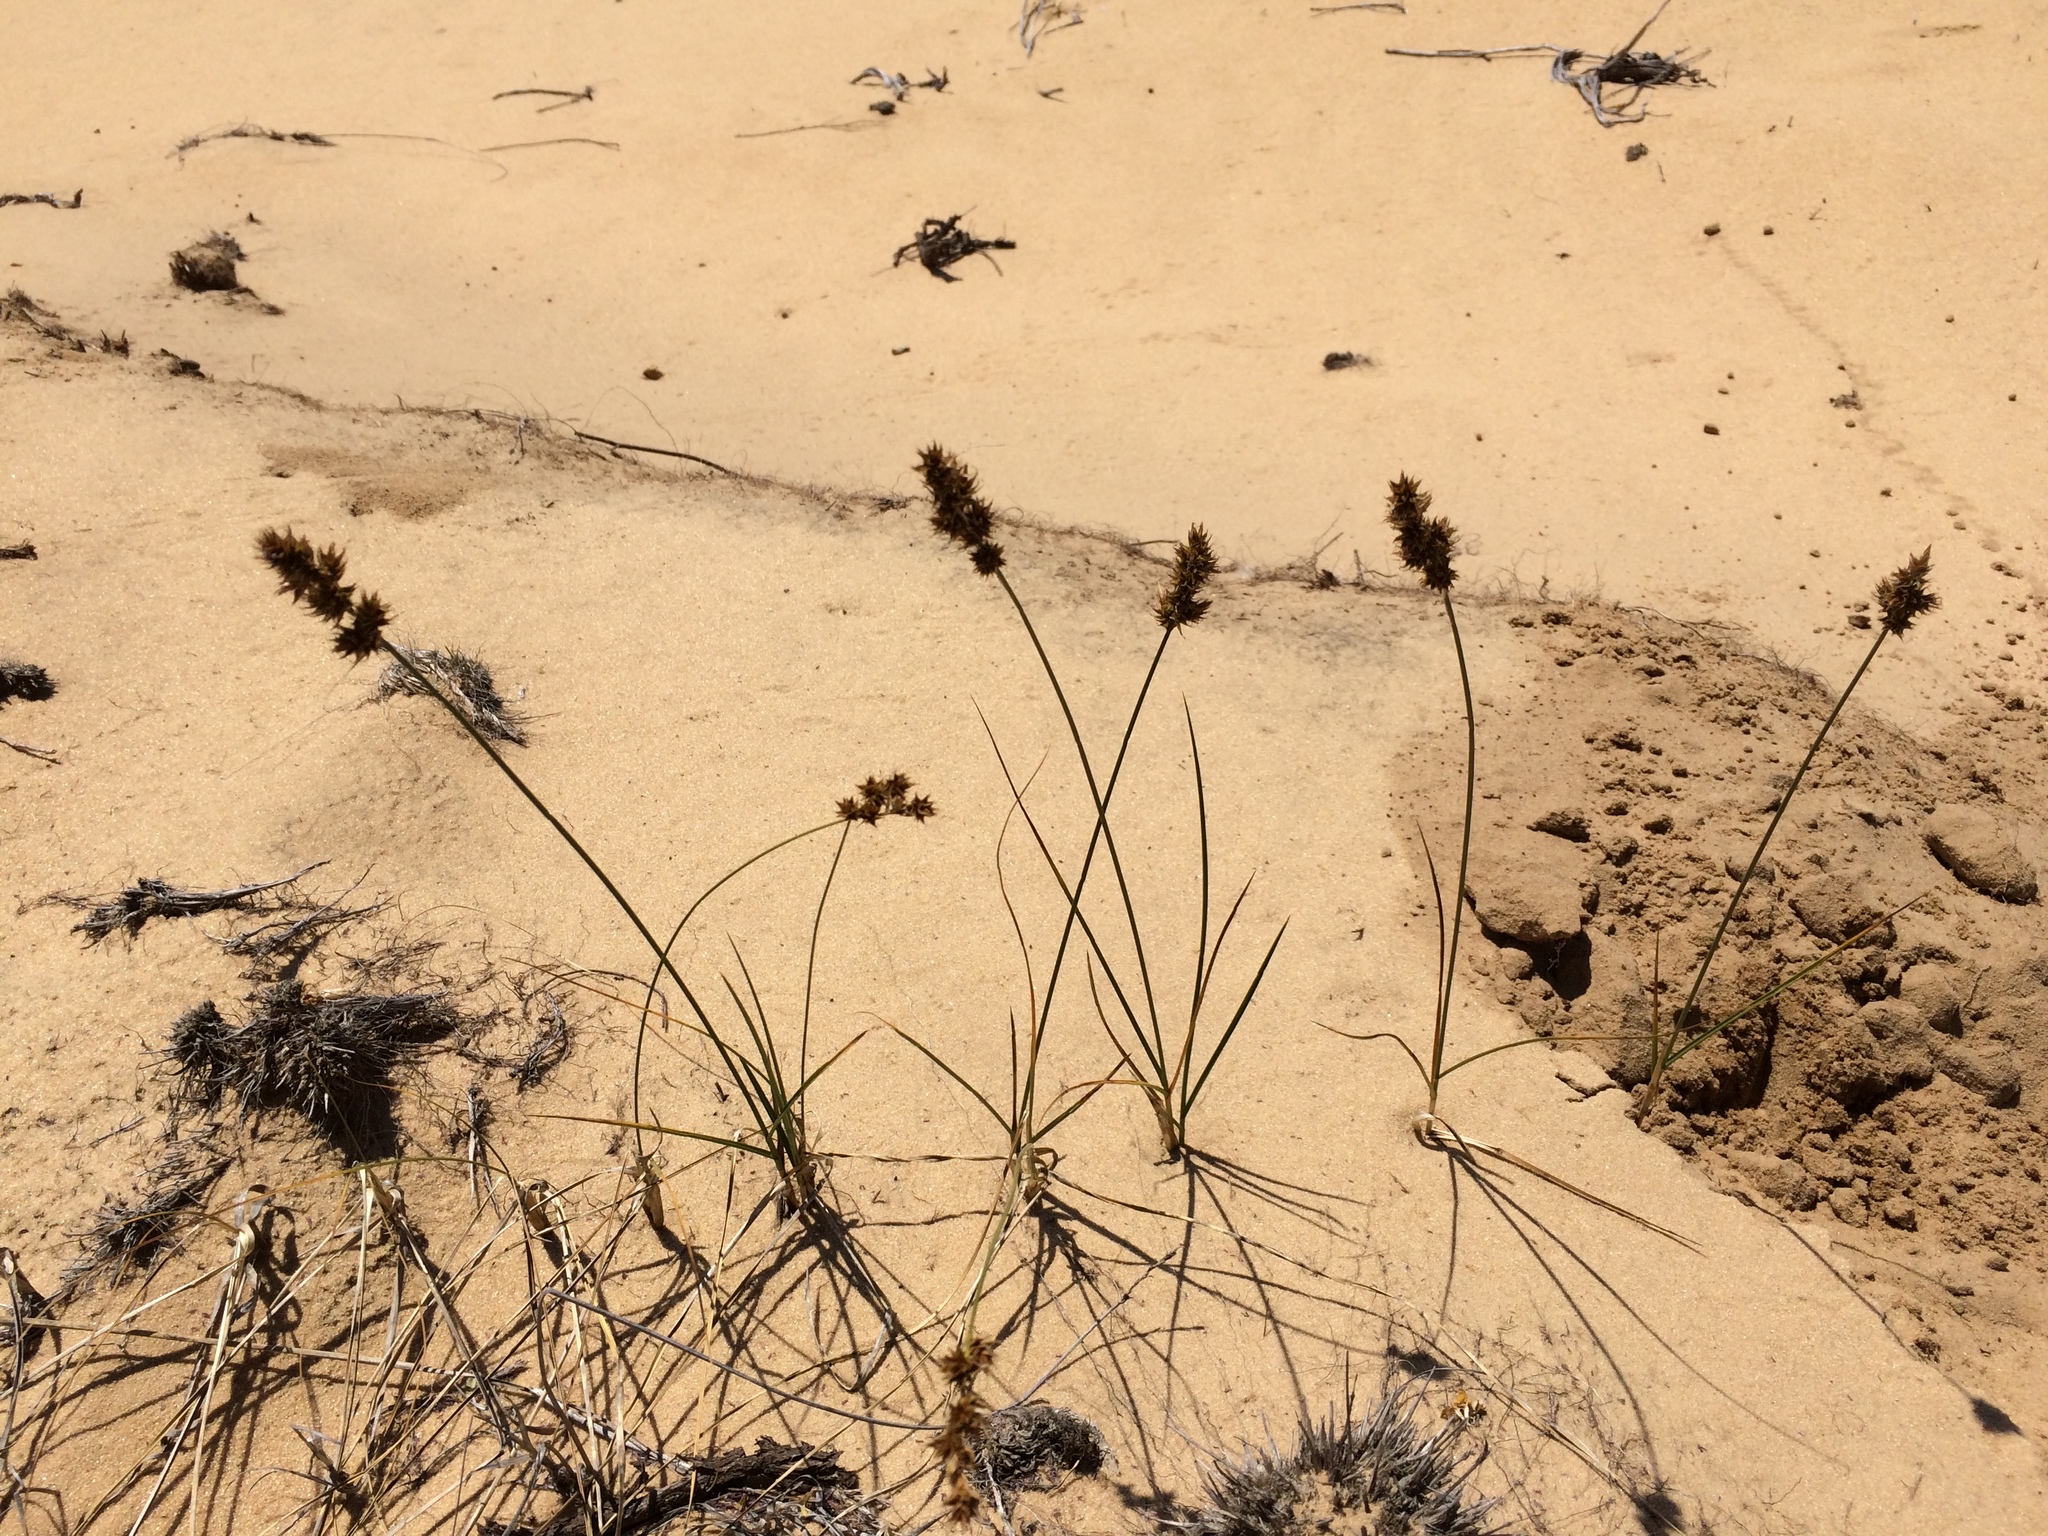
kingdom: Plantae
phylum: Tracheophyta
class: Liliopsida
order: Poales
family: Cyperaceae
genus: Carex
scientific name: Carex colchica
